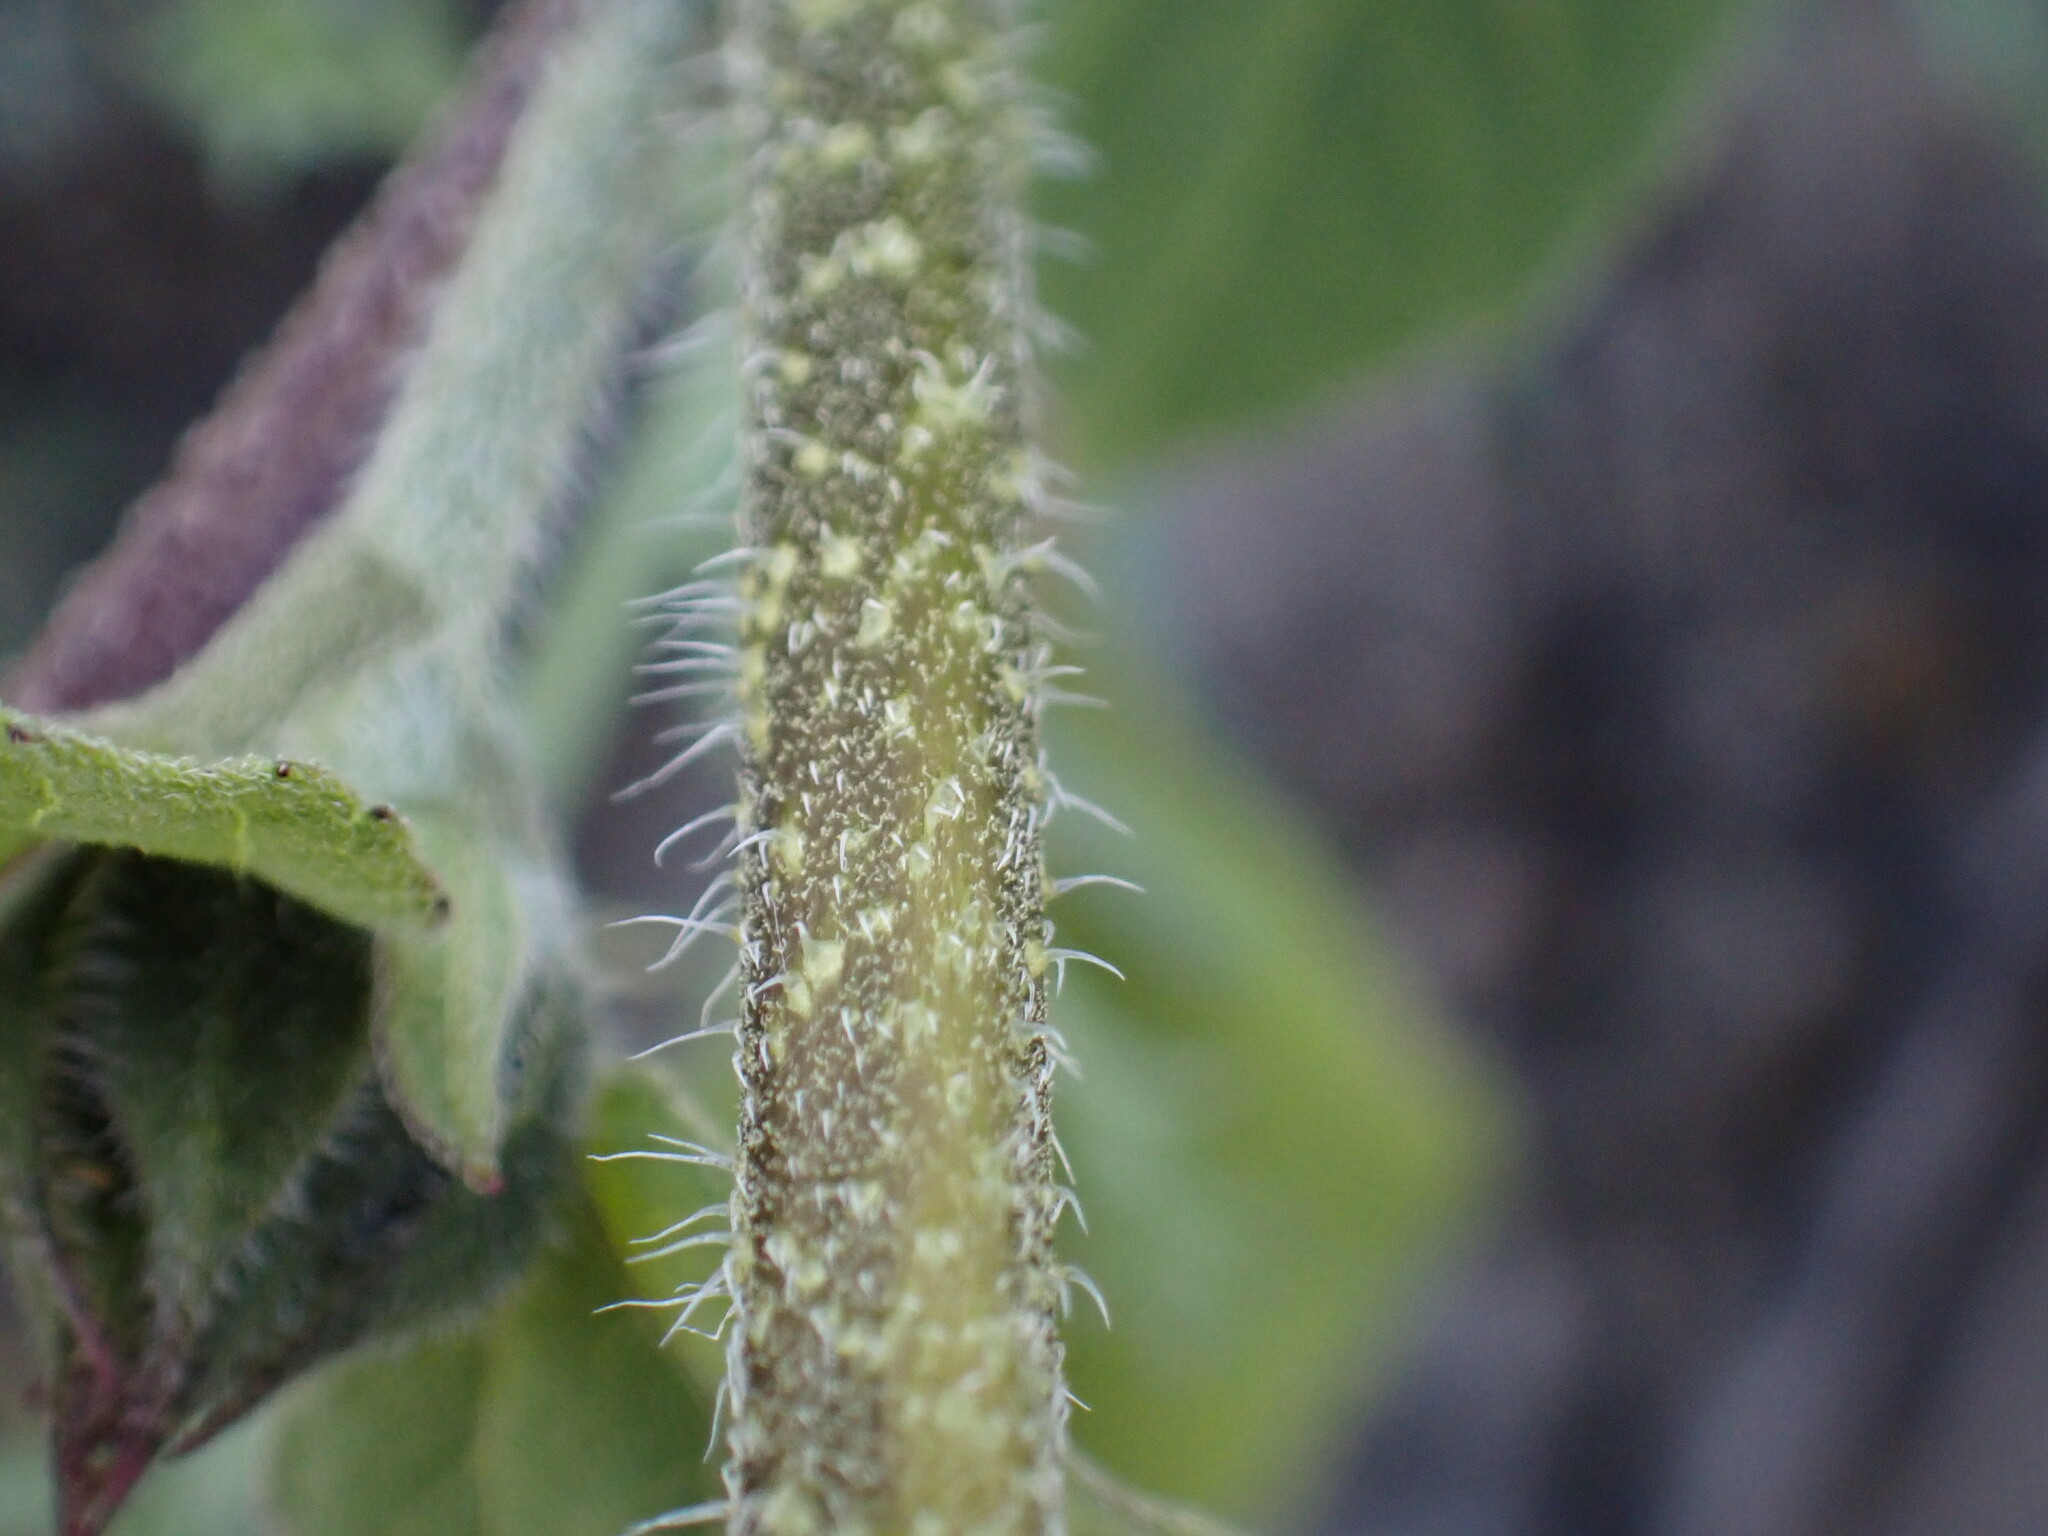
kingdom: Plantae
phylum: Tracheophyta
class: Magnoliopsida
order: Asterales
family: Asteraceae
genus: Helianthus
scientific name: Helianthus annuus
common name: Sunflower
